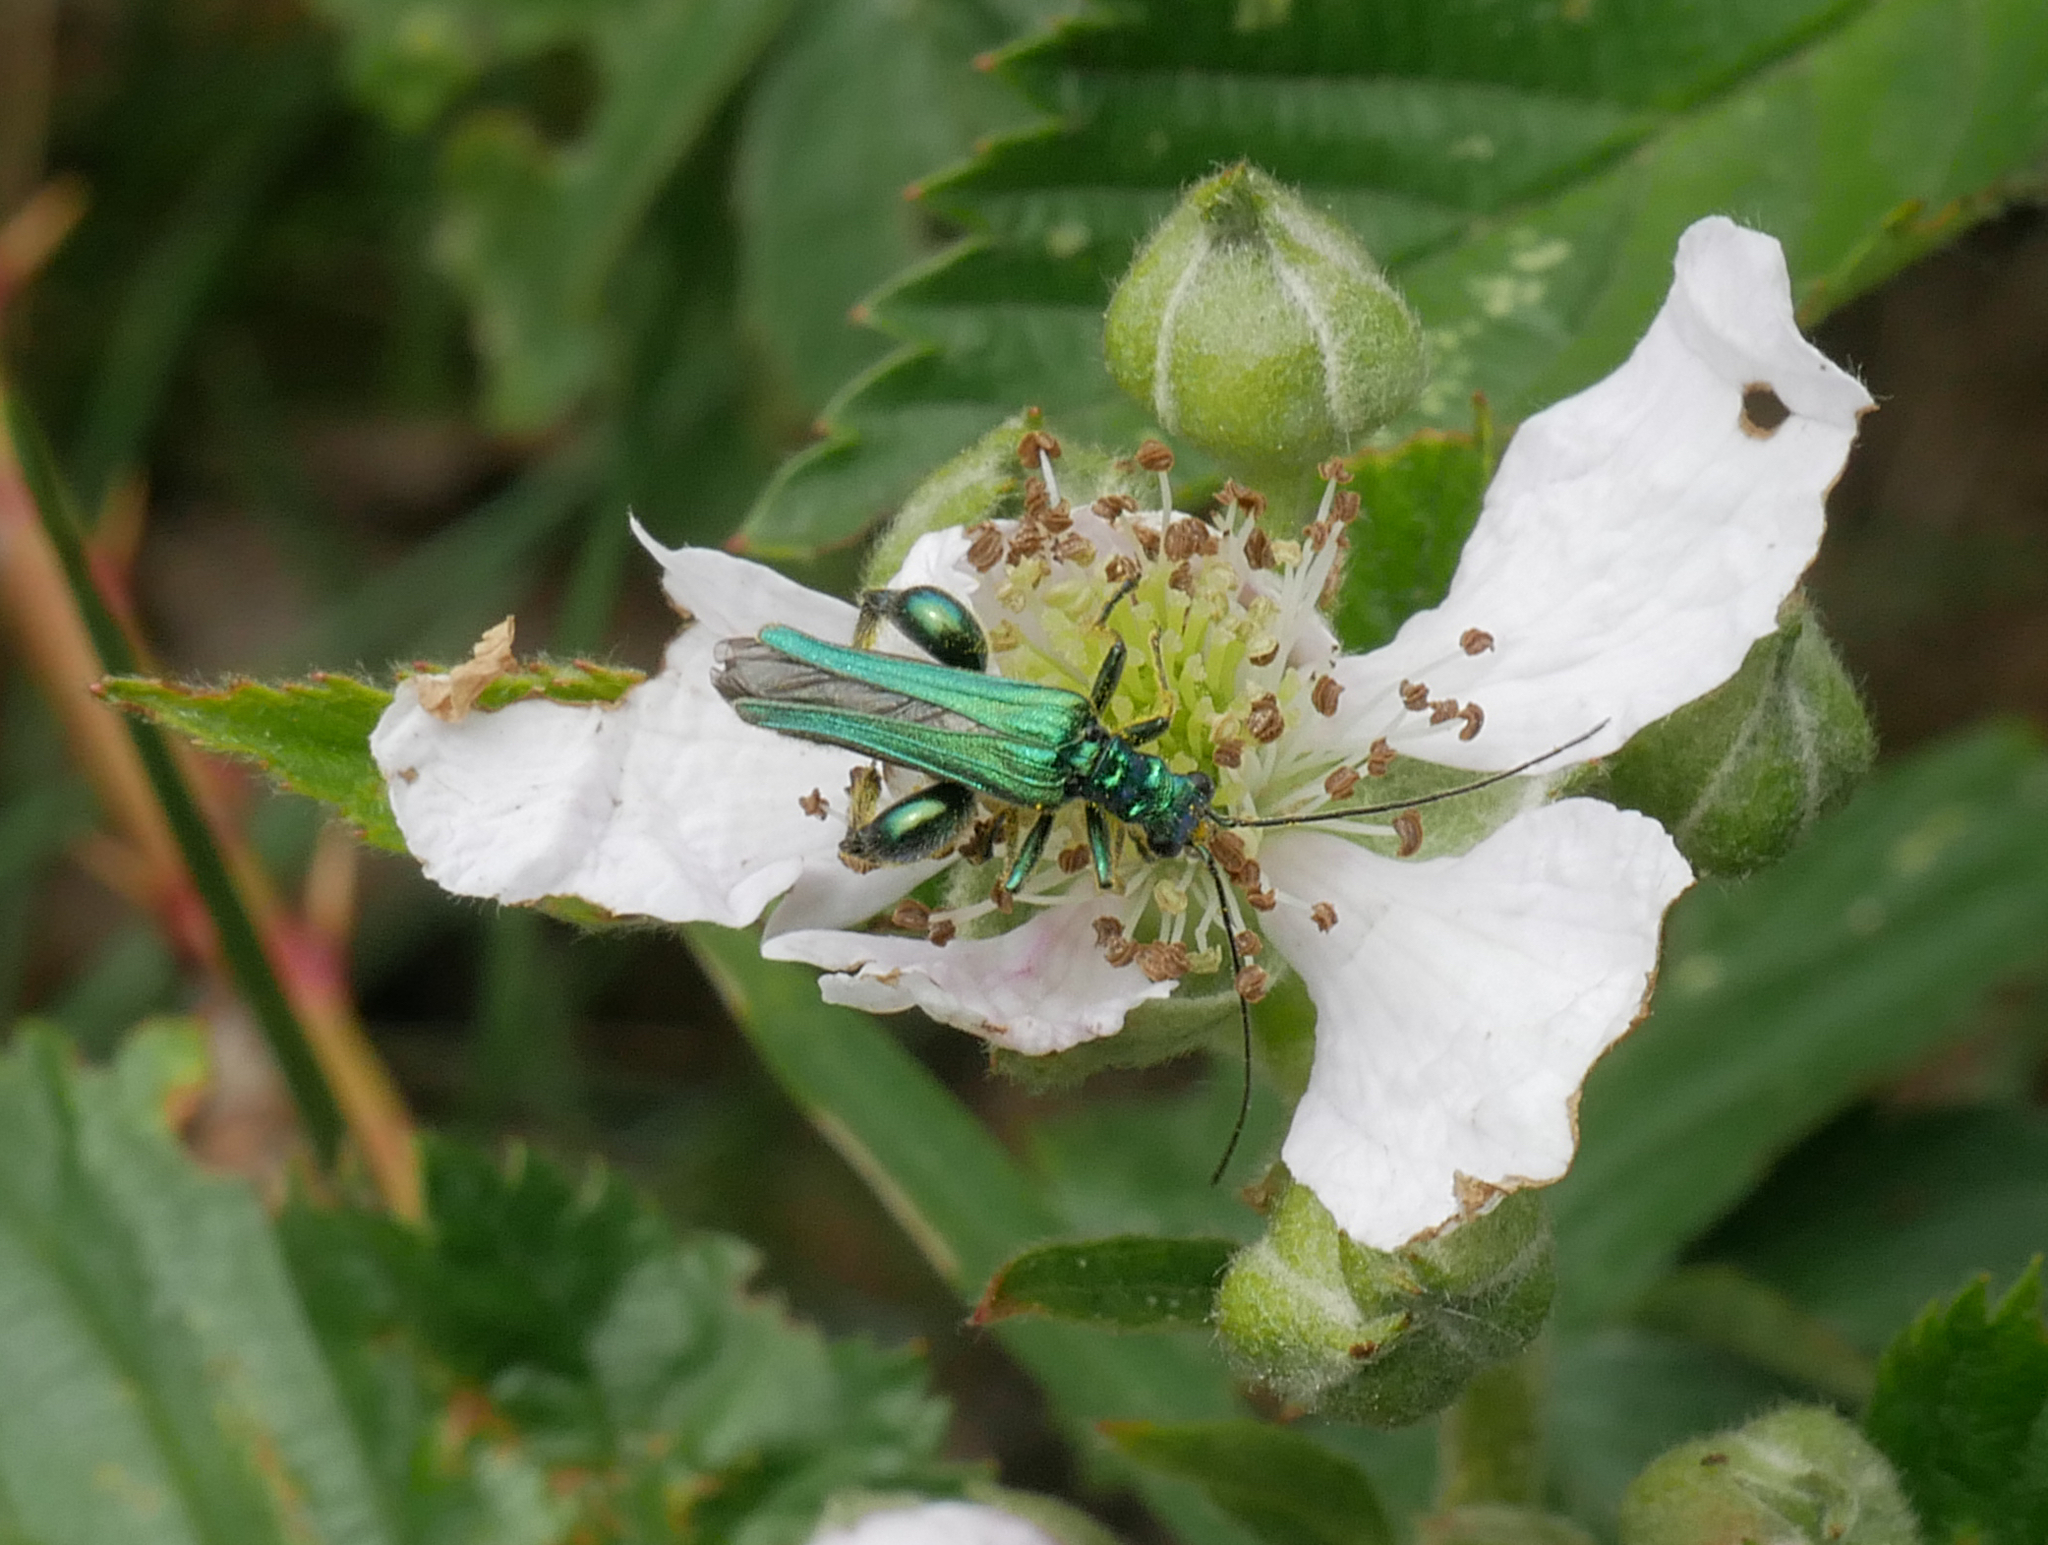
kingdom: Animalia
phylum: Arthropoda
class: Insecta
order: Coleoptera
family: Oedemeridae
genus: Oedemera
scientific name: Oedemera nobilis
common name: Swollen-thighed beetle
